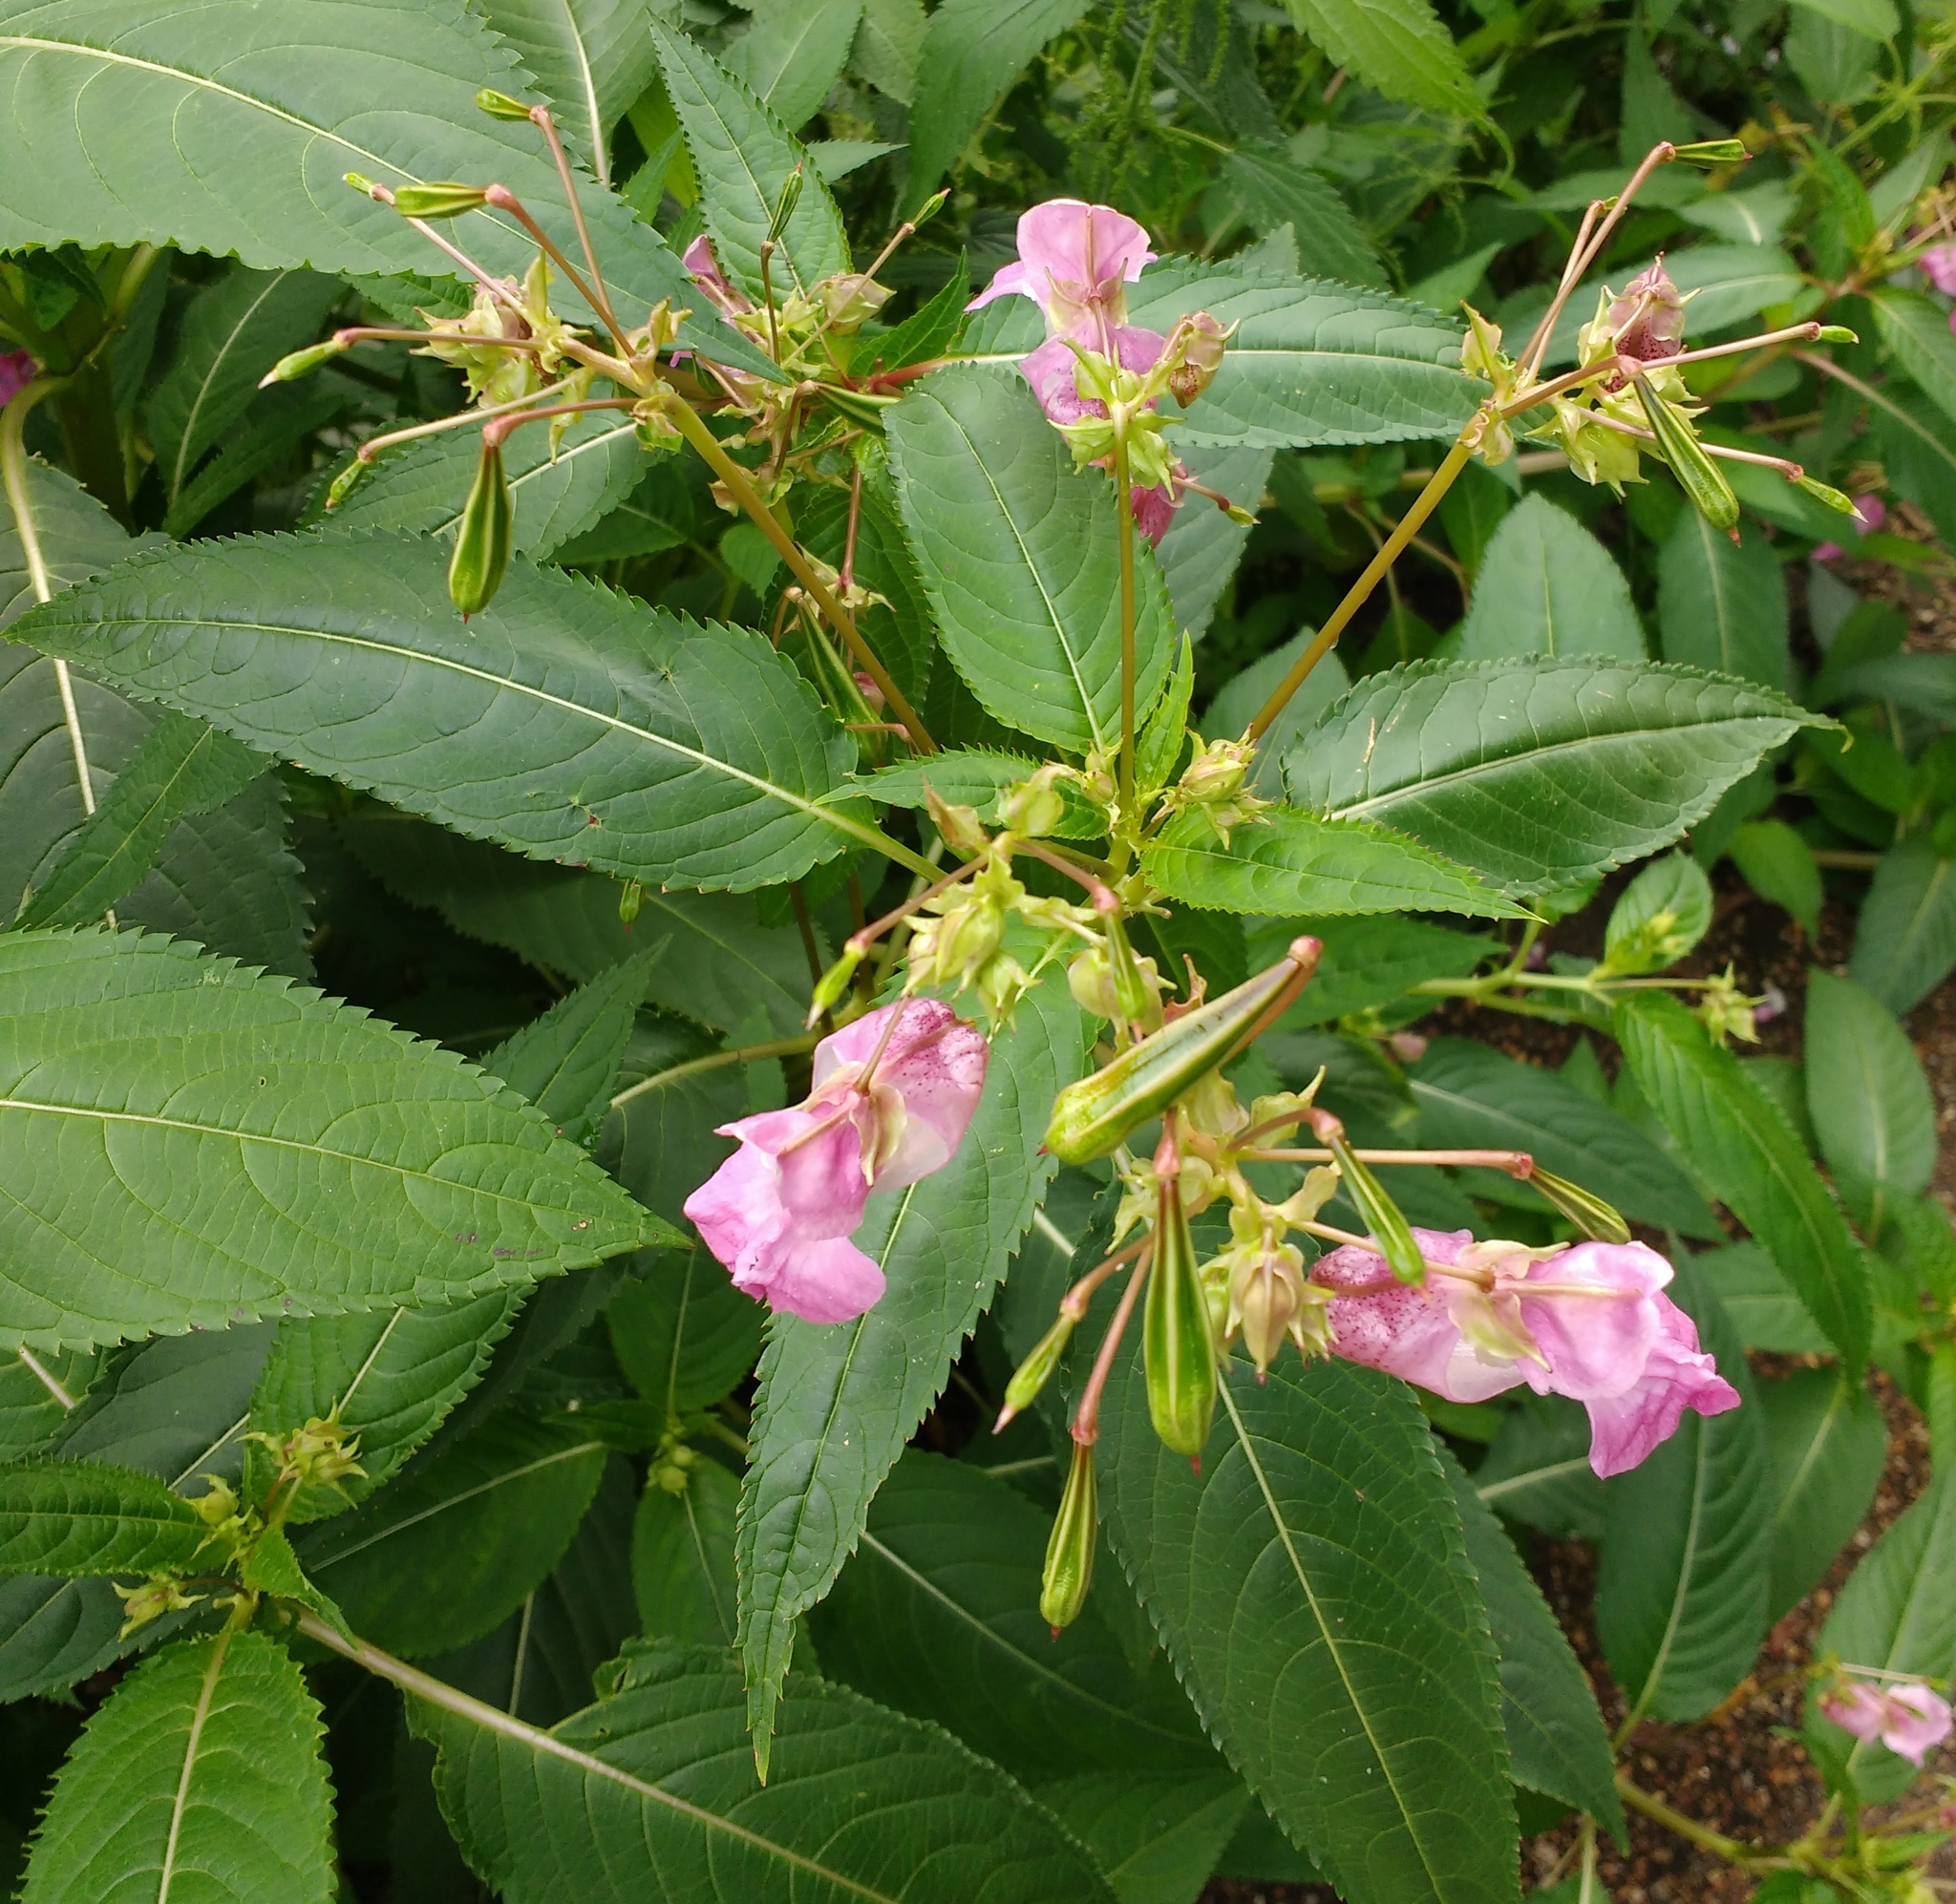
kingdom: Plantae
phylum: Tracheophyta
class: Magnoliopsida
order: Ericales
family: Balsaminaceae
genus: Impatiens
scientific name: Impatiens glandulifera
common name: Himalayan balsam
